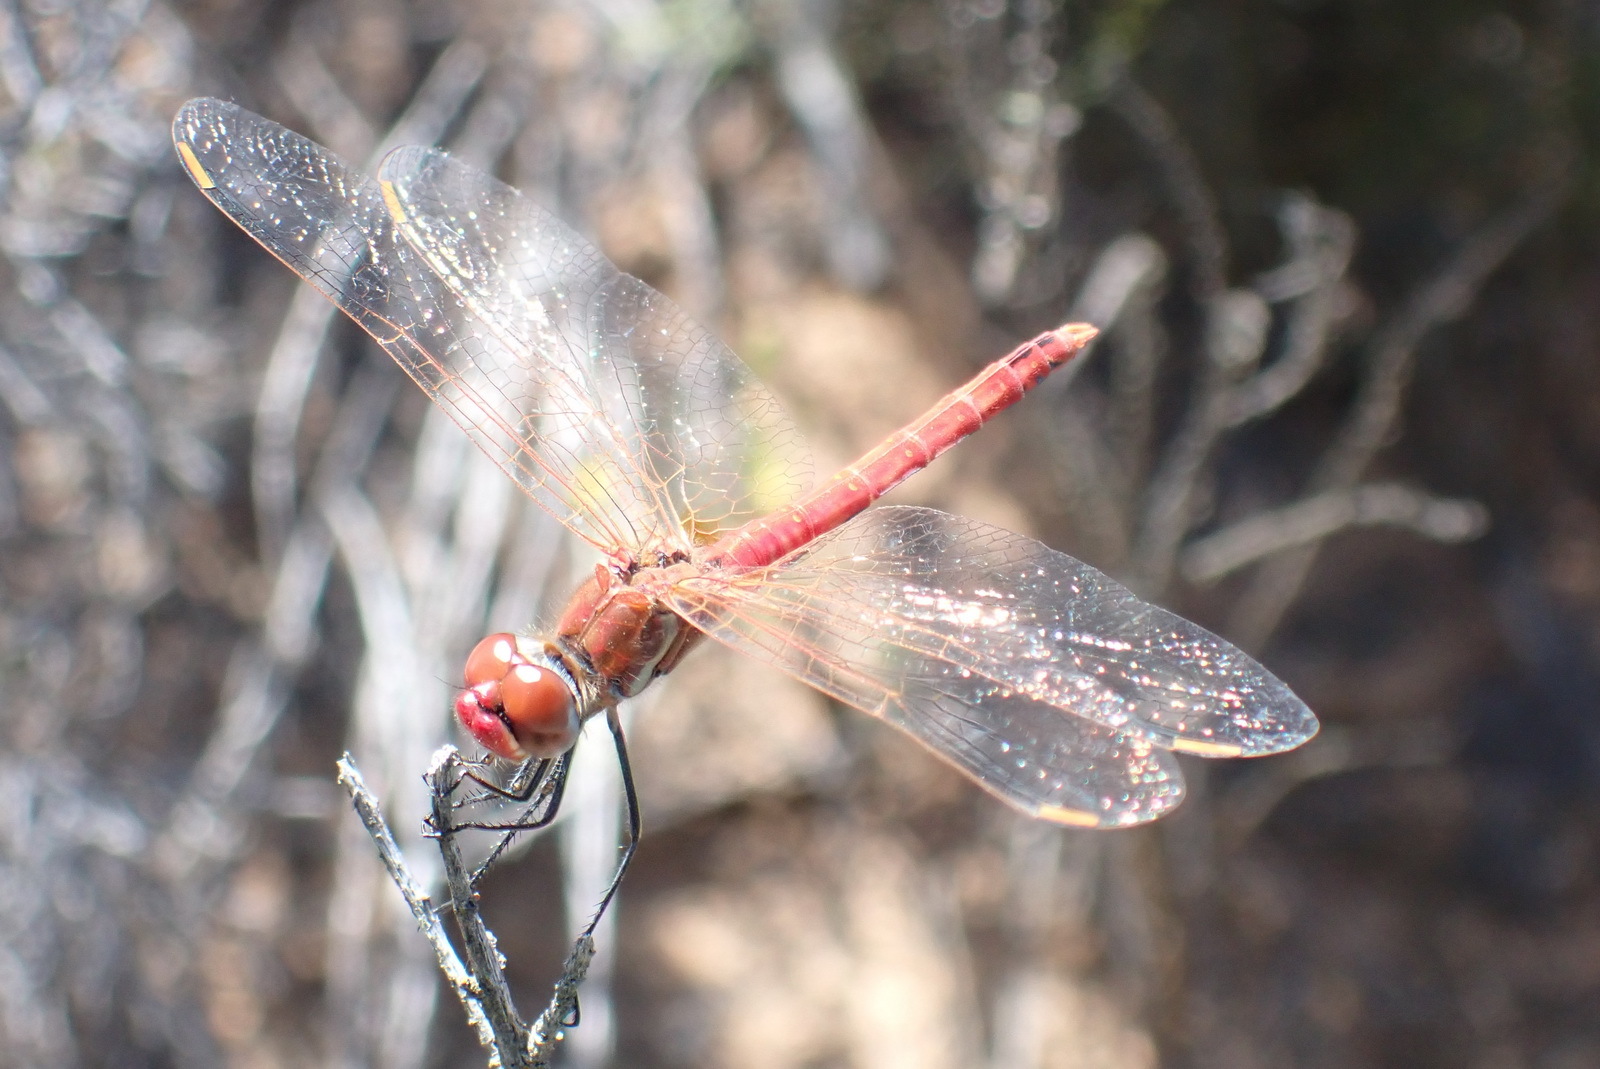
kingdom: Animalia
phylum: Arthropoda
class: Insecta
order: Odonata
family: Libellulidae
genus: Sympetrum
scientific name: Sympetrum fonscolombii
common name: Red-veined darter
